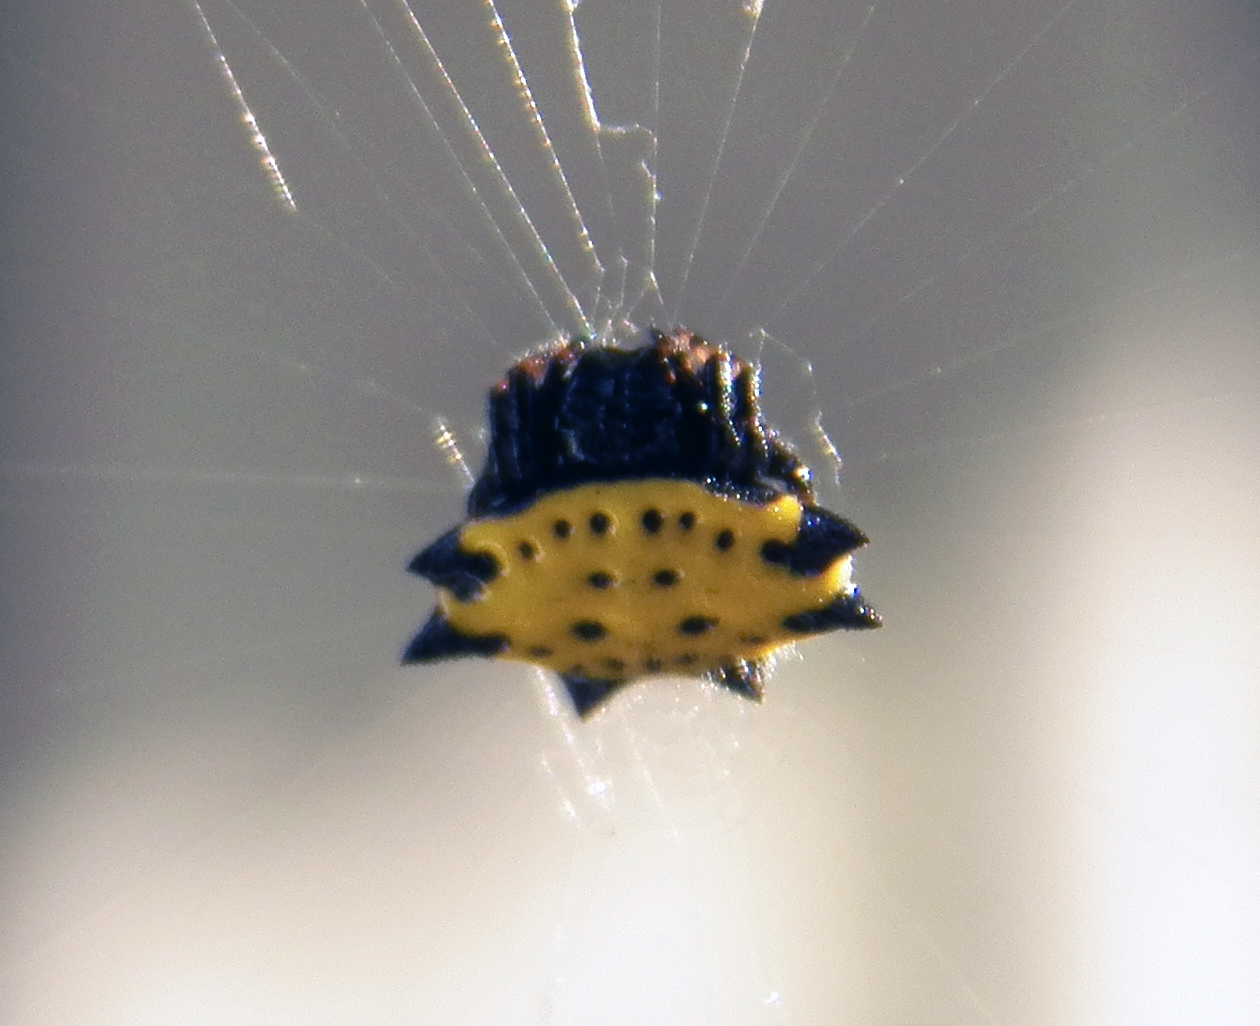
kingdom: Animalia
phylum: Arthropoda
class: Arachnida
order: Araneae
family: Araneidae
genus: Gasteracantha
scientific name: Gasteracantha cancriformis
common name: Orb weavers
